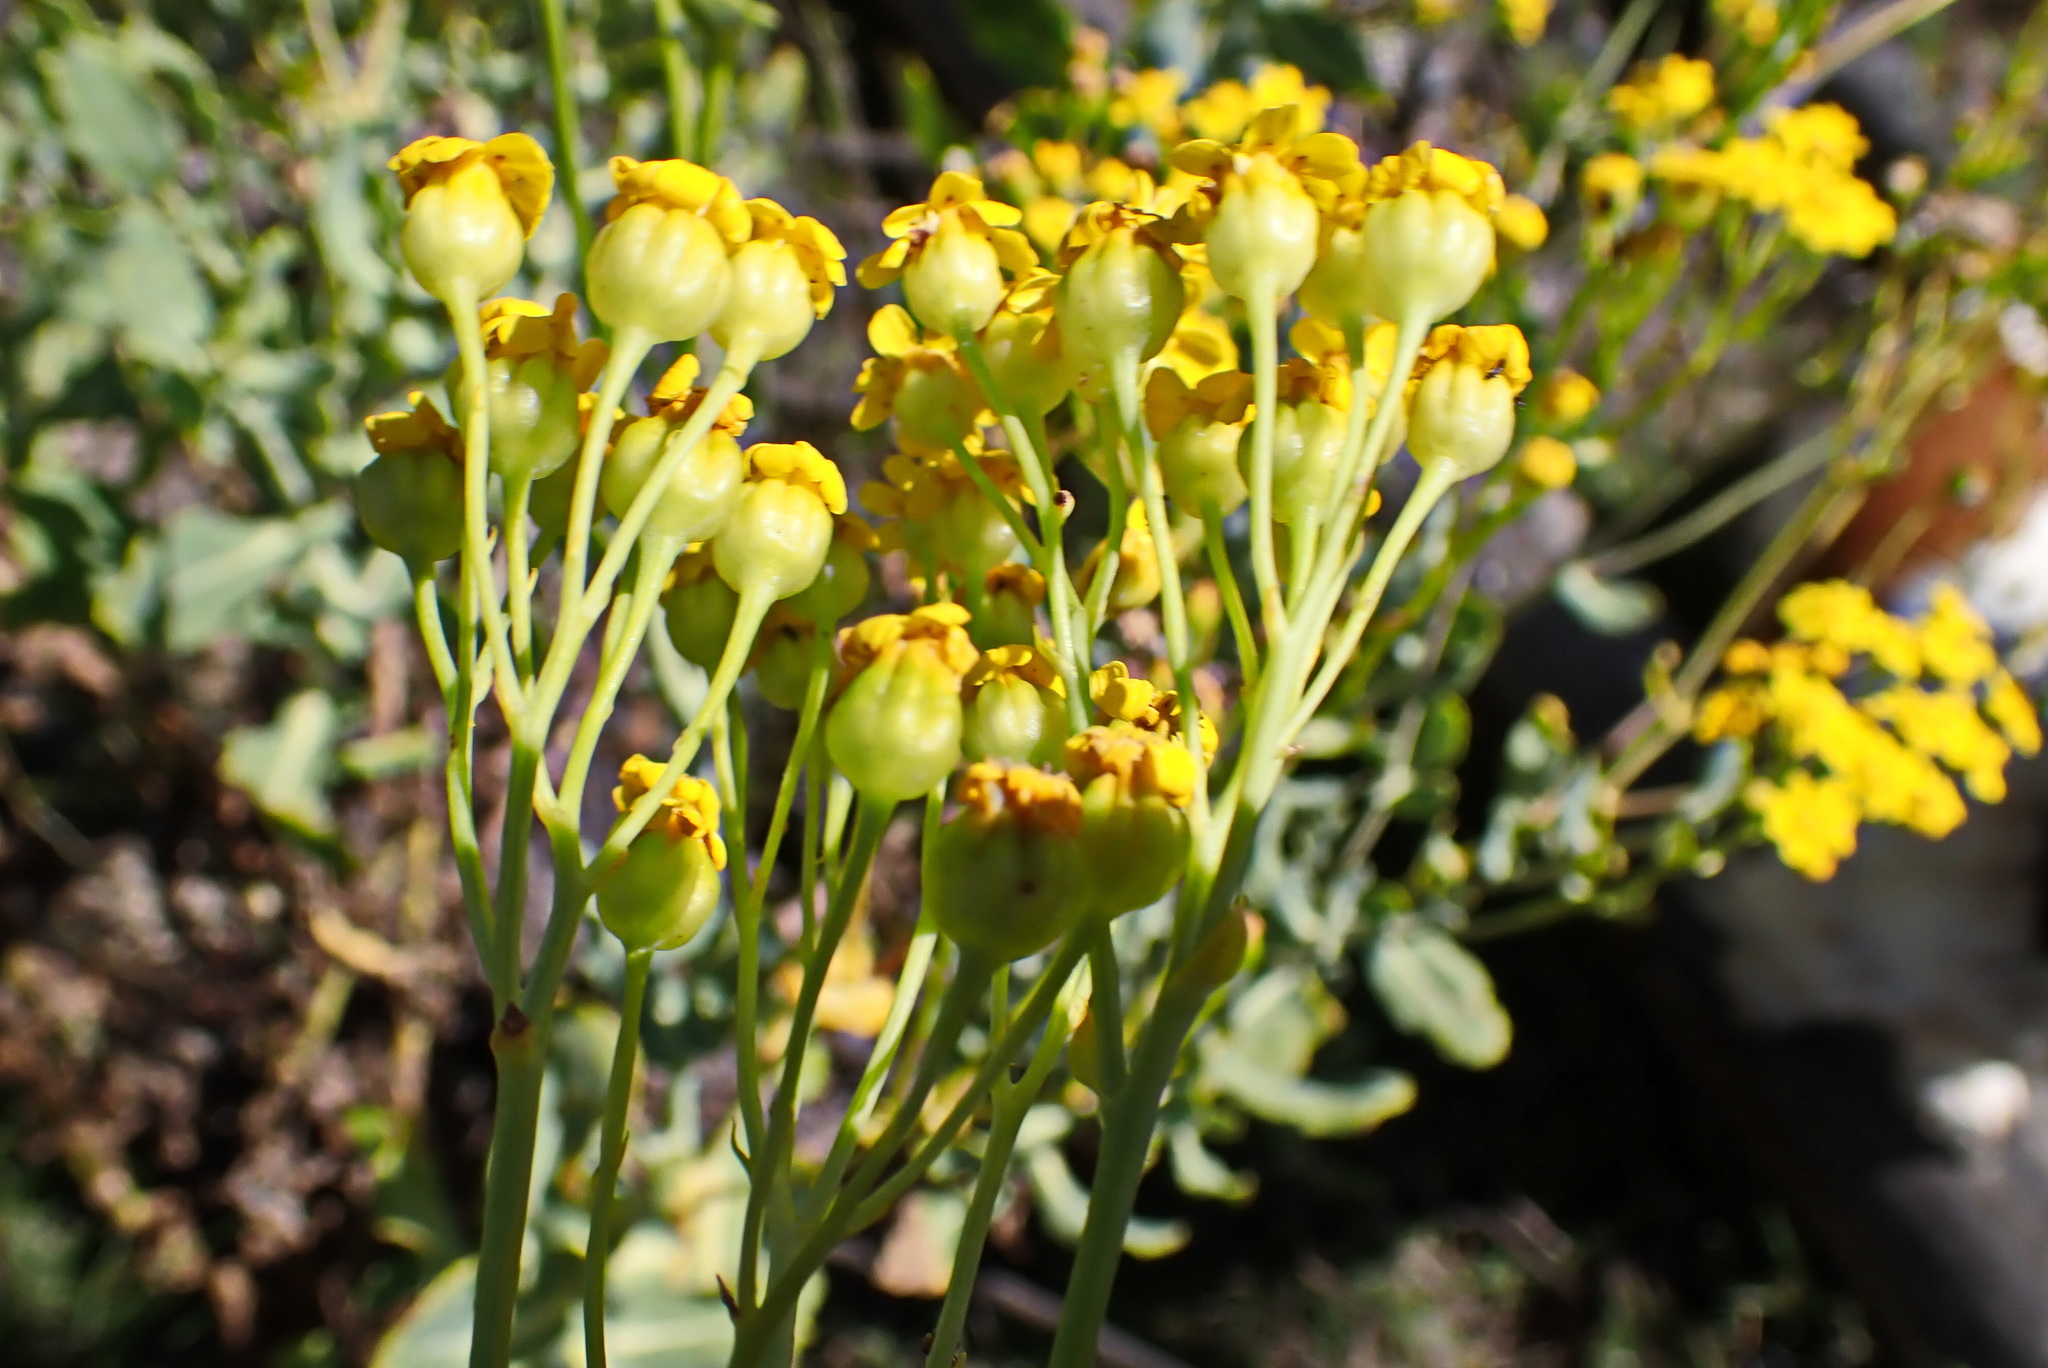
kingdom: Plantae
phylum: Tracheophyta
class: Magnoliopsida
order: Asterales
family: Asteraceae
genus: Othonna
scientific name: Othonna parviflora
